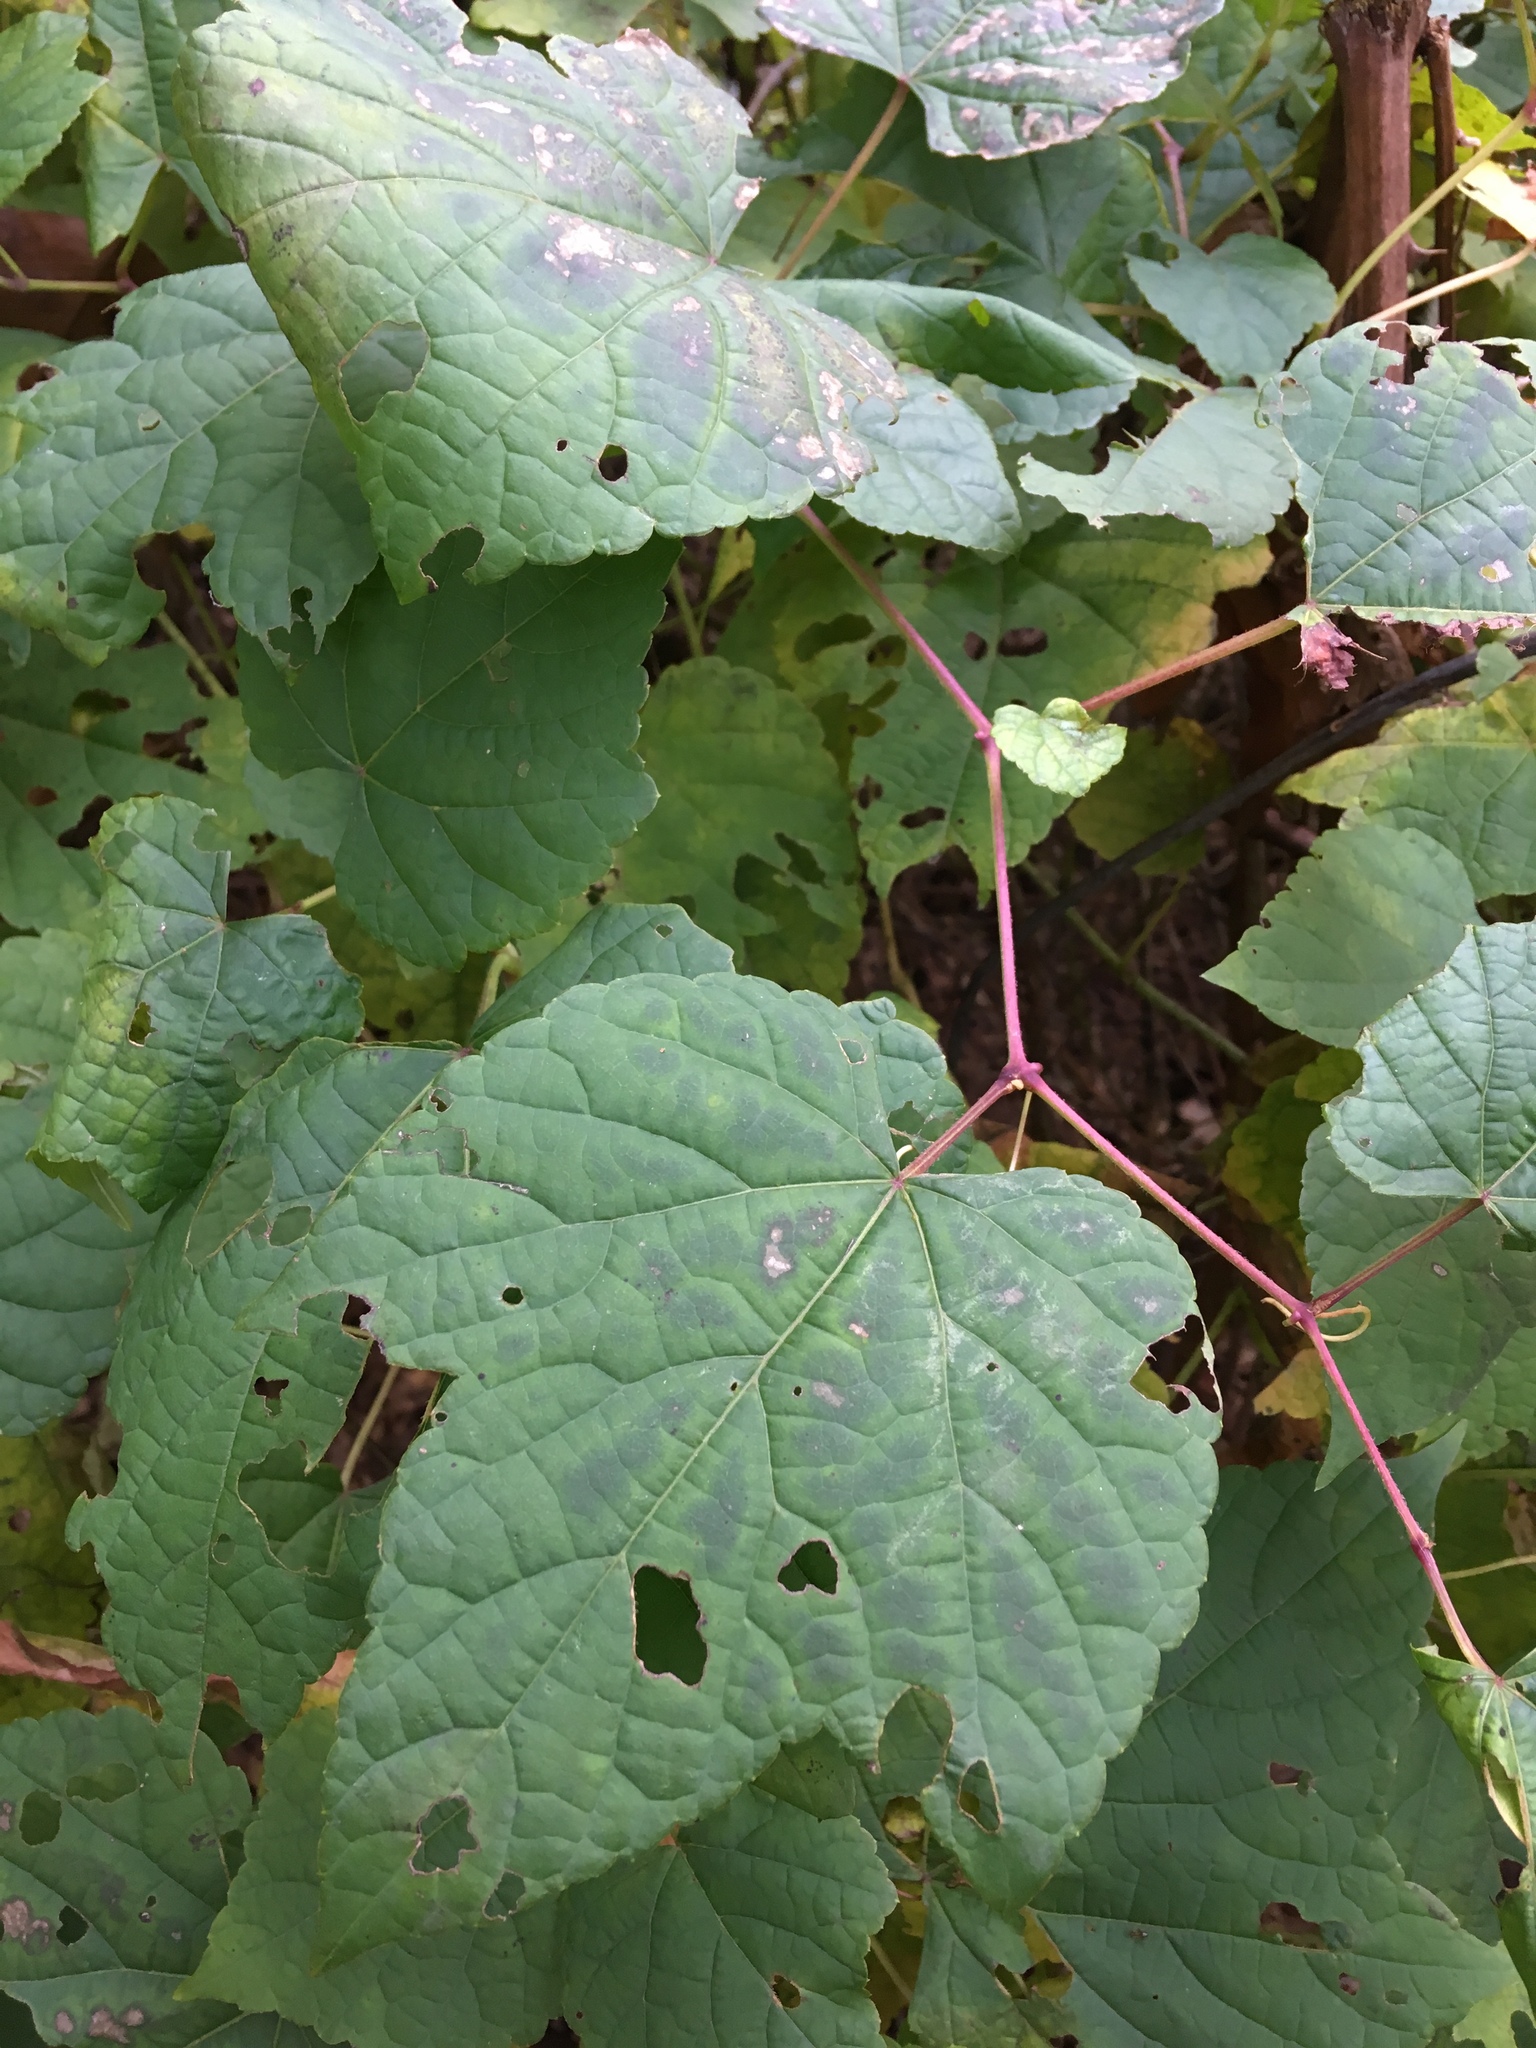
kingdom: Plantae
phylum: Tracheophyta
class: Magnoliopsida
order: Vitales
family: Vitaceae
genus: Ampelopsis
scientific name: Ampelopsis glandulosa
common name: Amur peppervine
